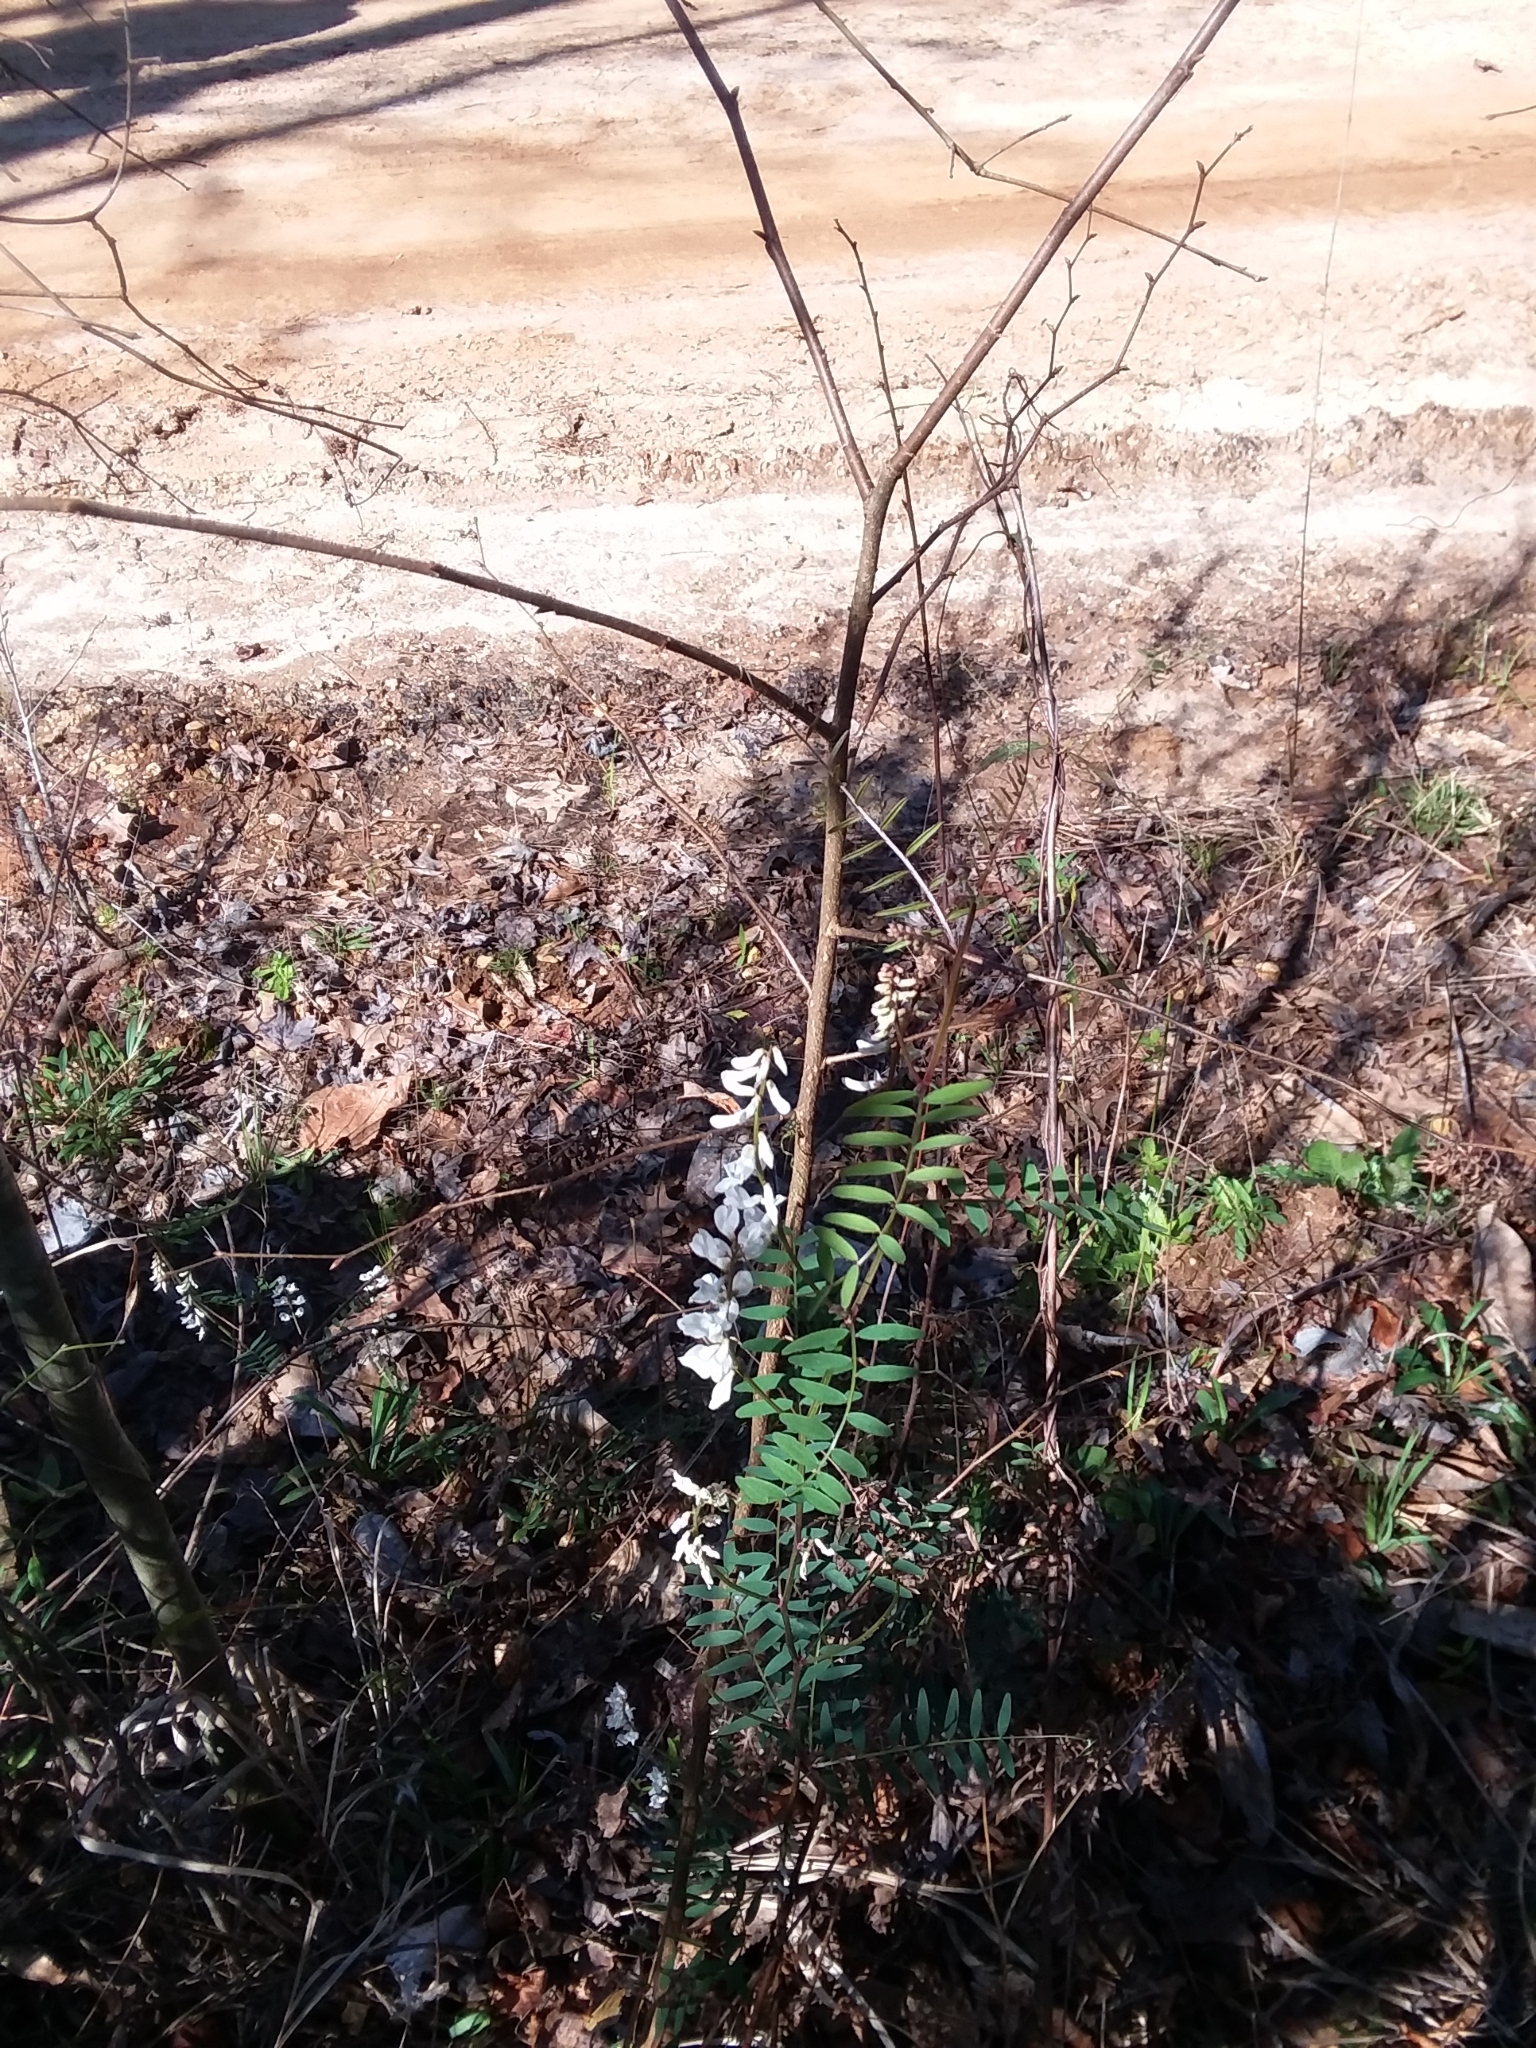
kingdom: Plantae
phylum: Tracheophyta
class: Magnoliopsida
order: Fabales
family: Fabaceae
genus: Vicia
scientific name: Vicia caroliniana
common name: Carolina vetch
